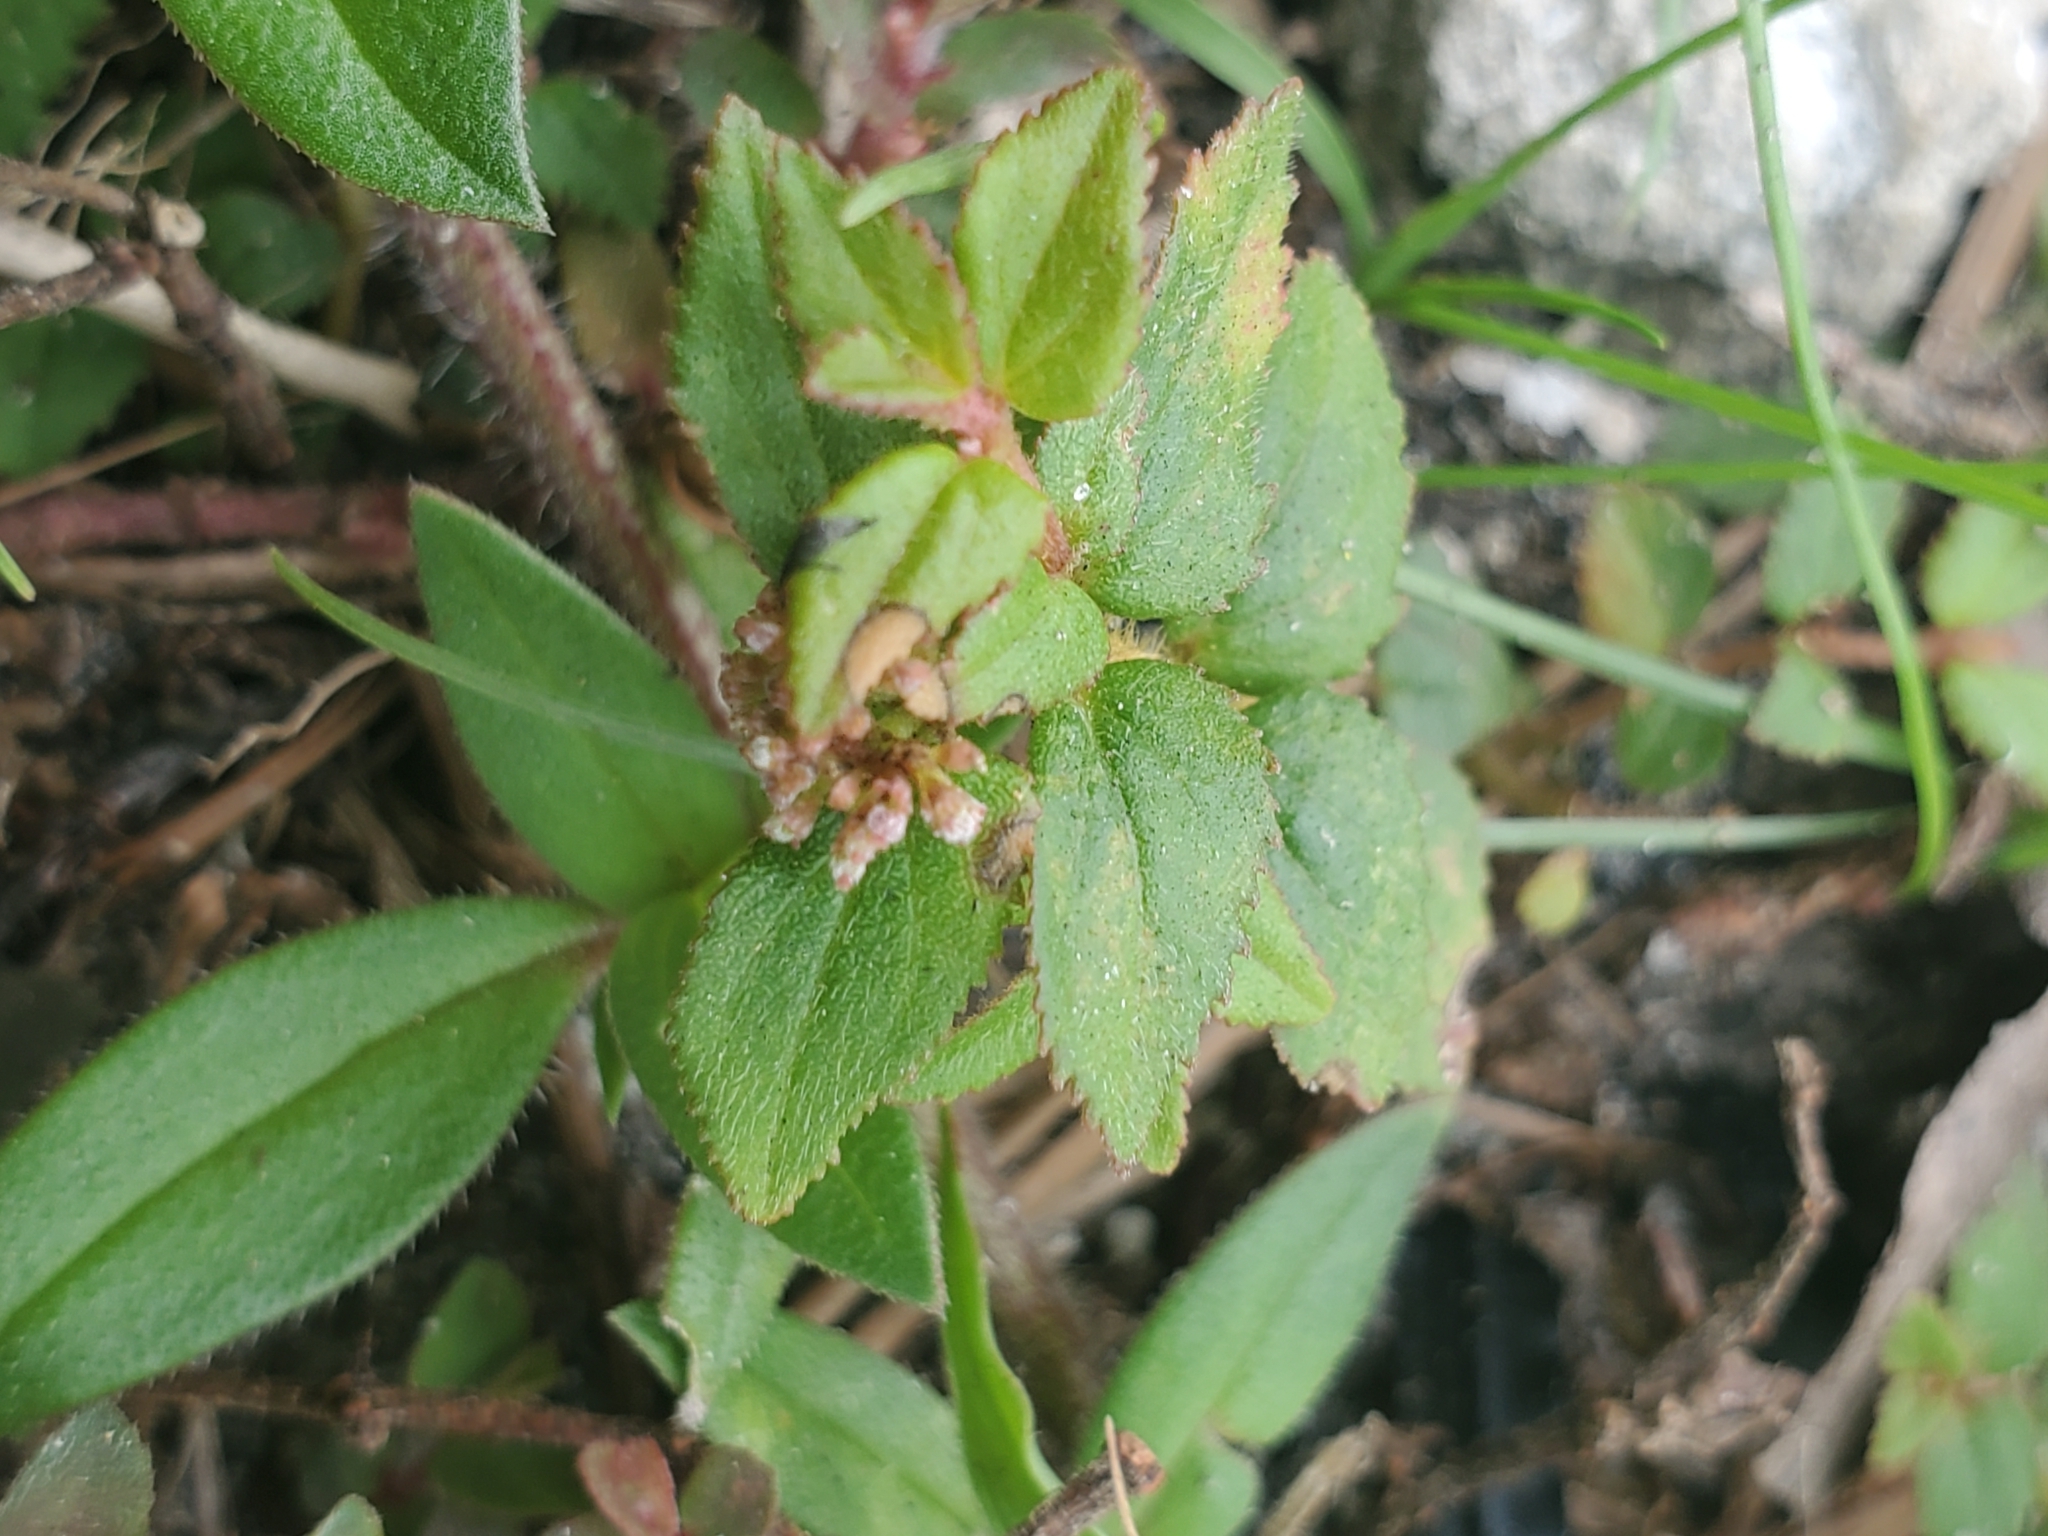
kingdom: Plantae
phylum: Tracheophyta
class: Magnoliopsida
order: Malpighiales
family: Euphorbiaceae
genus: Euphorbia
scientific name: Euphorbia ophthalmica
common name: Florida hammock sandmat
